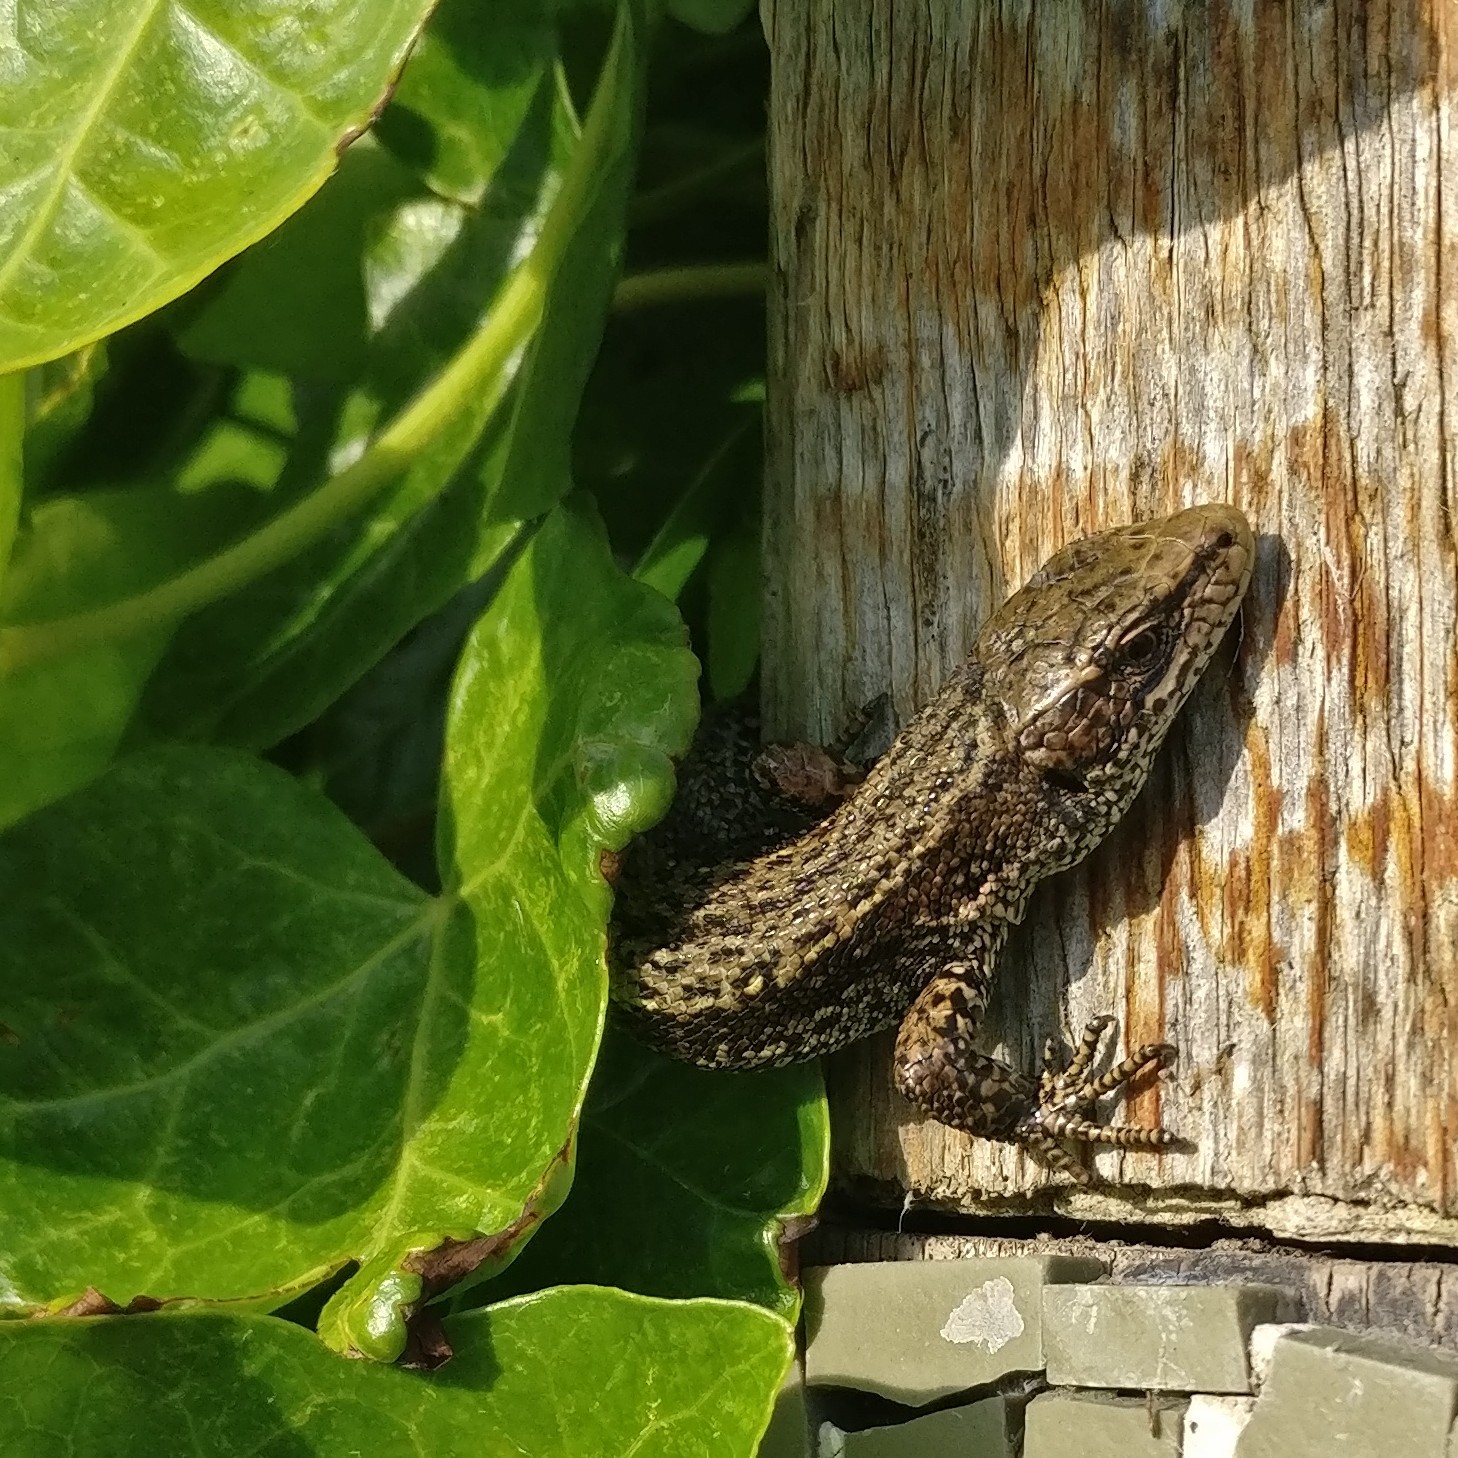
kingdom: Animalia
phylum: Chordata
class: Squamata
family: Lacertidae
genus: Zootoca
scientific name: Zootoca vivipara
